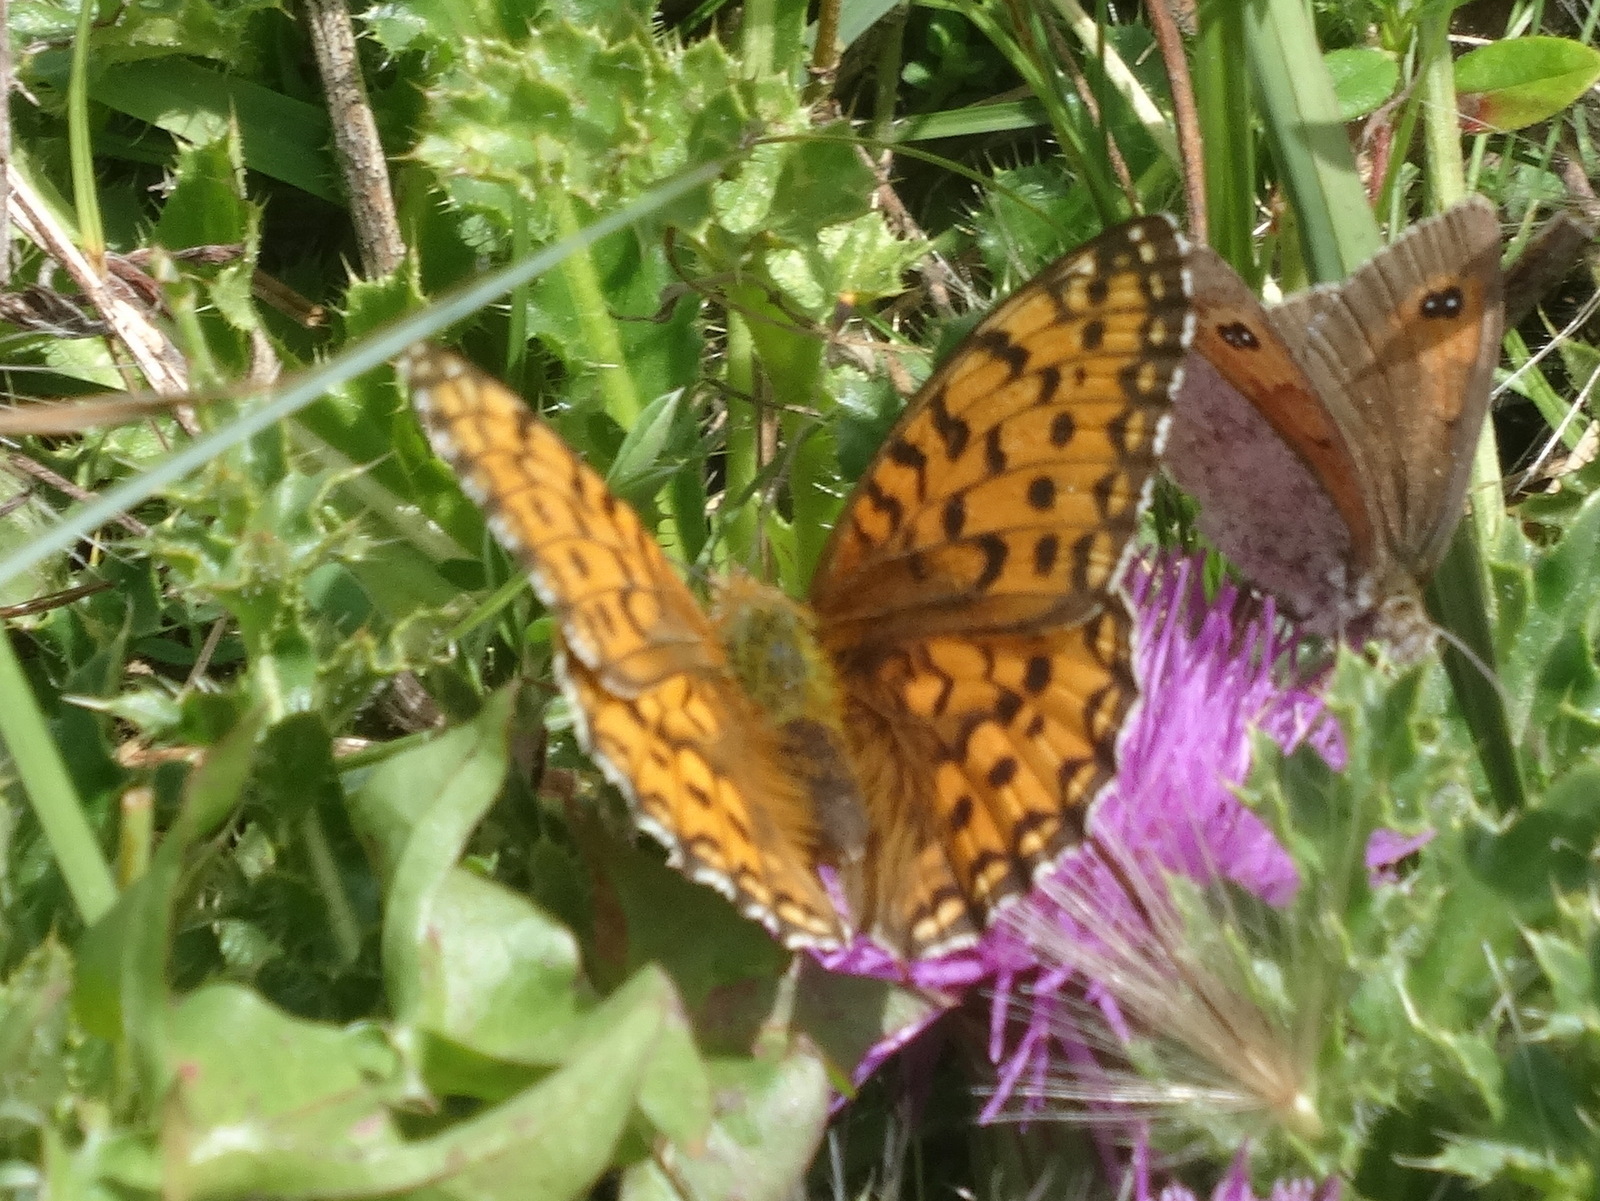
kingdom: Animalia
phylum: Arthropoda
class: Insecta
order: Lepidoptera
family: Nymphalidae
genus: Speyeria
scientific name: Speyeria aglaja
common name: Dark green fritillary
